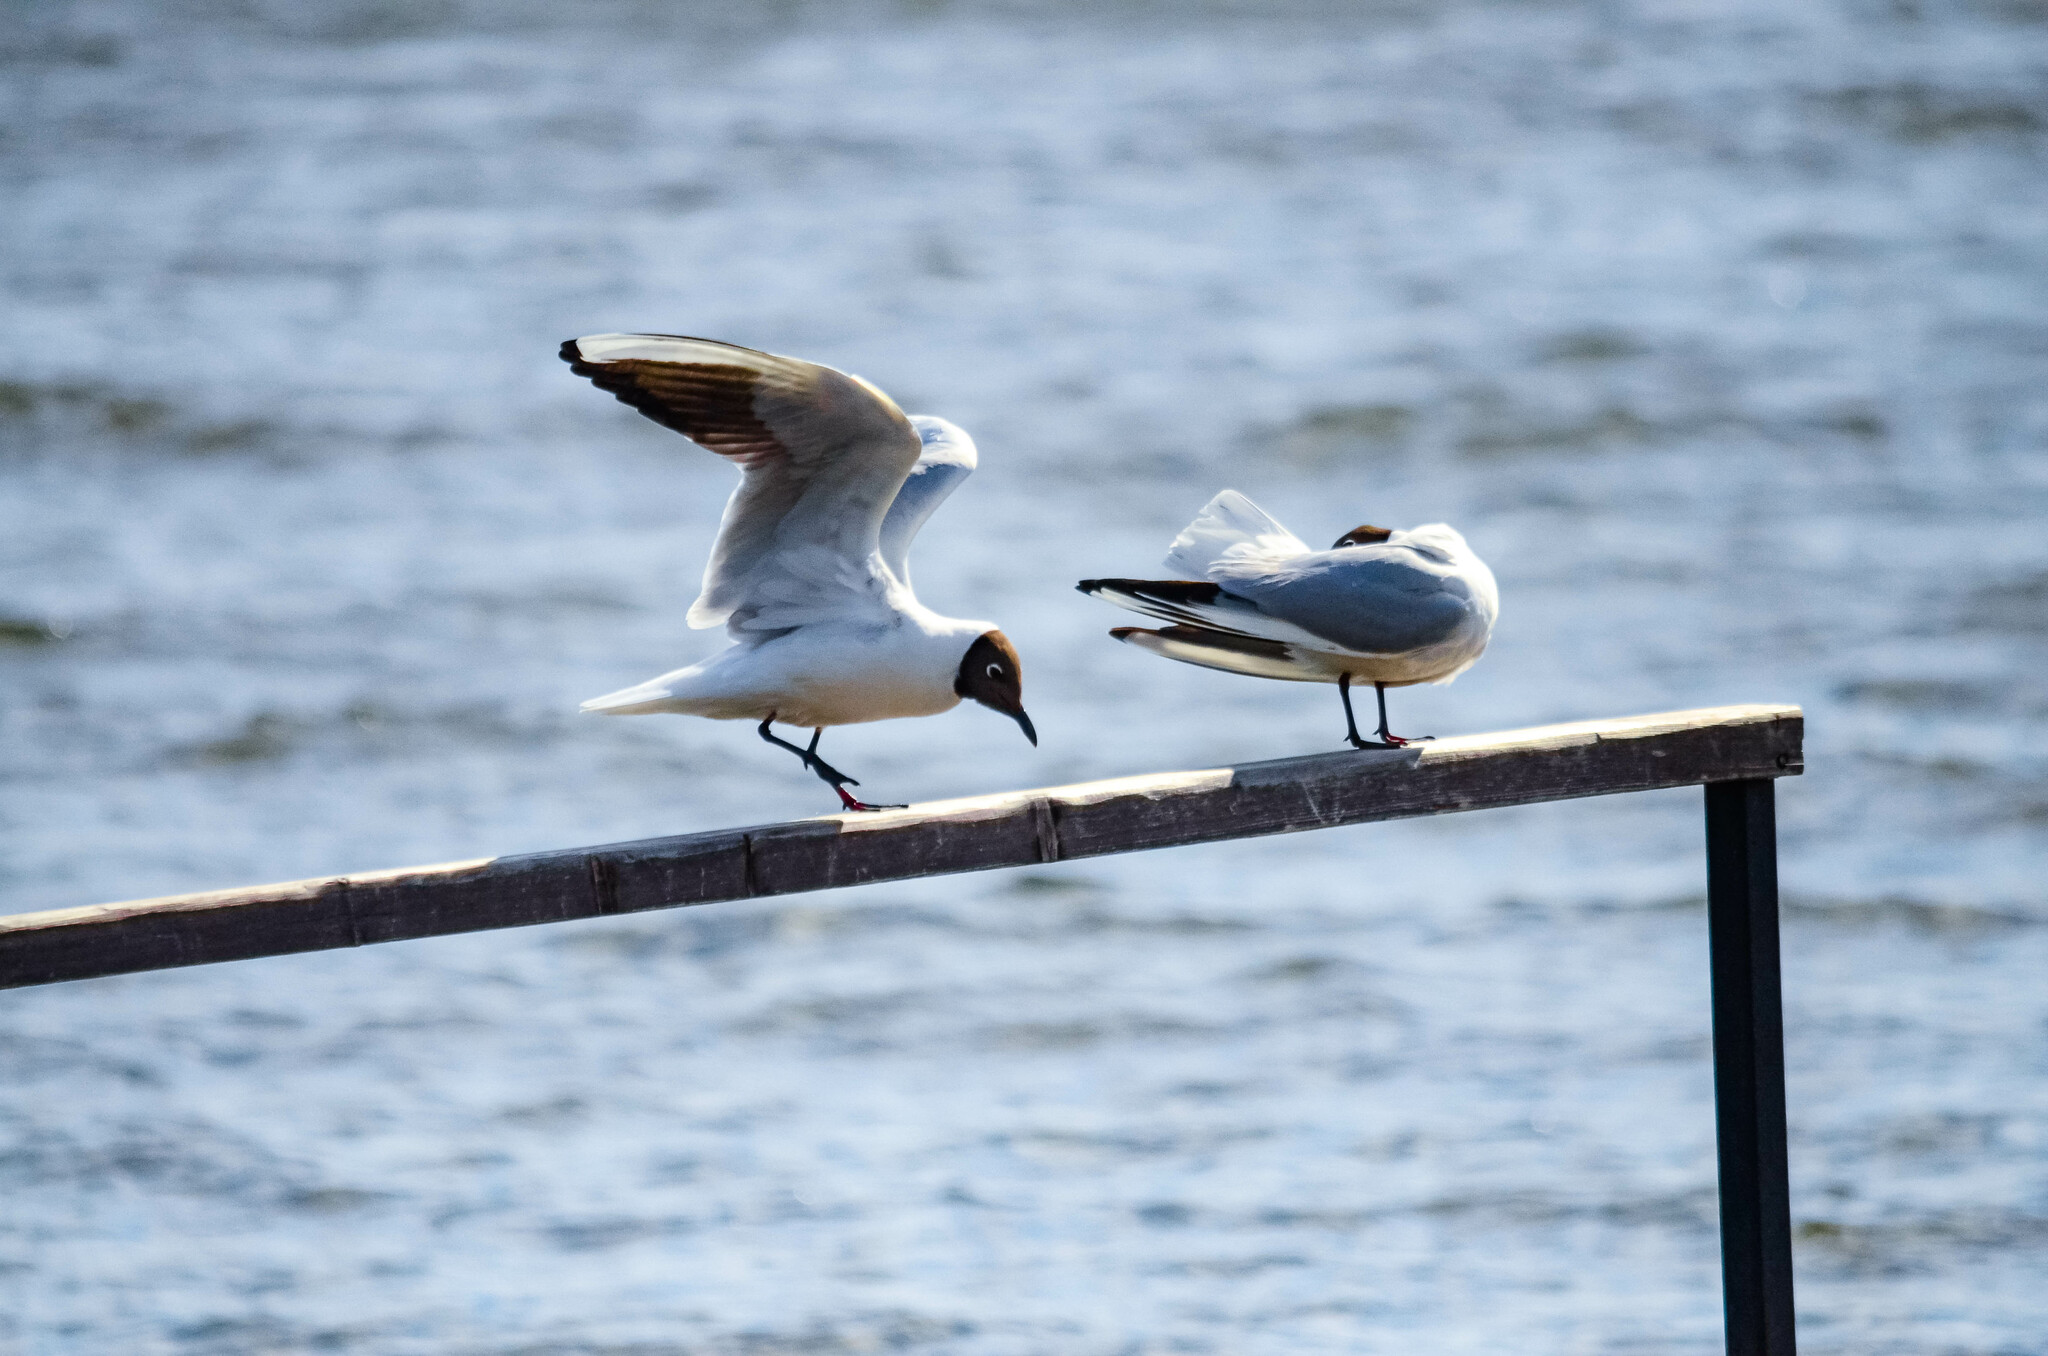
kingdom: Animalia
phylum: Chordata
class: Aves
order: Charadriiformes
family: Laridae
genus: Chroicocephalus
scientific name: Chroicocephalus ridibundus
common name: Black-headed gull
